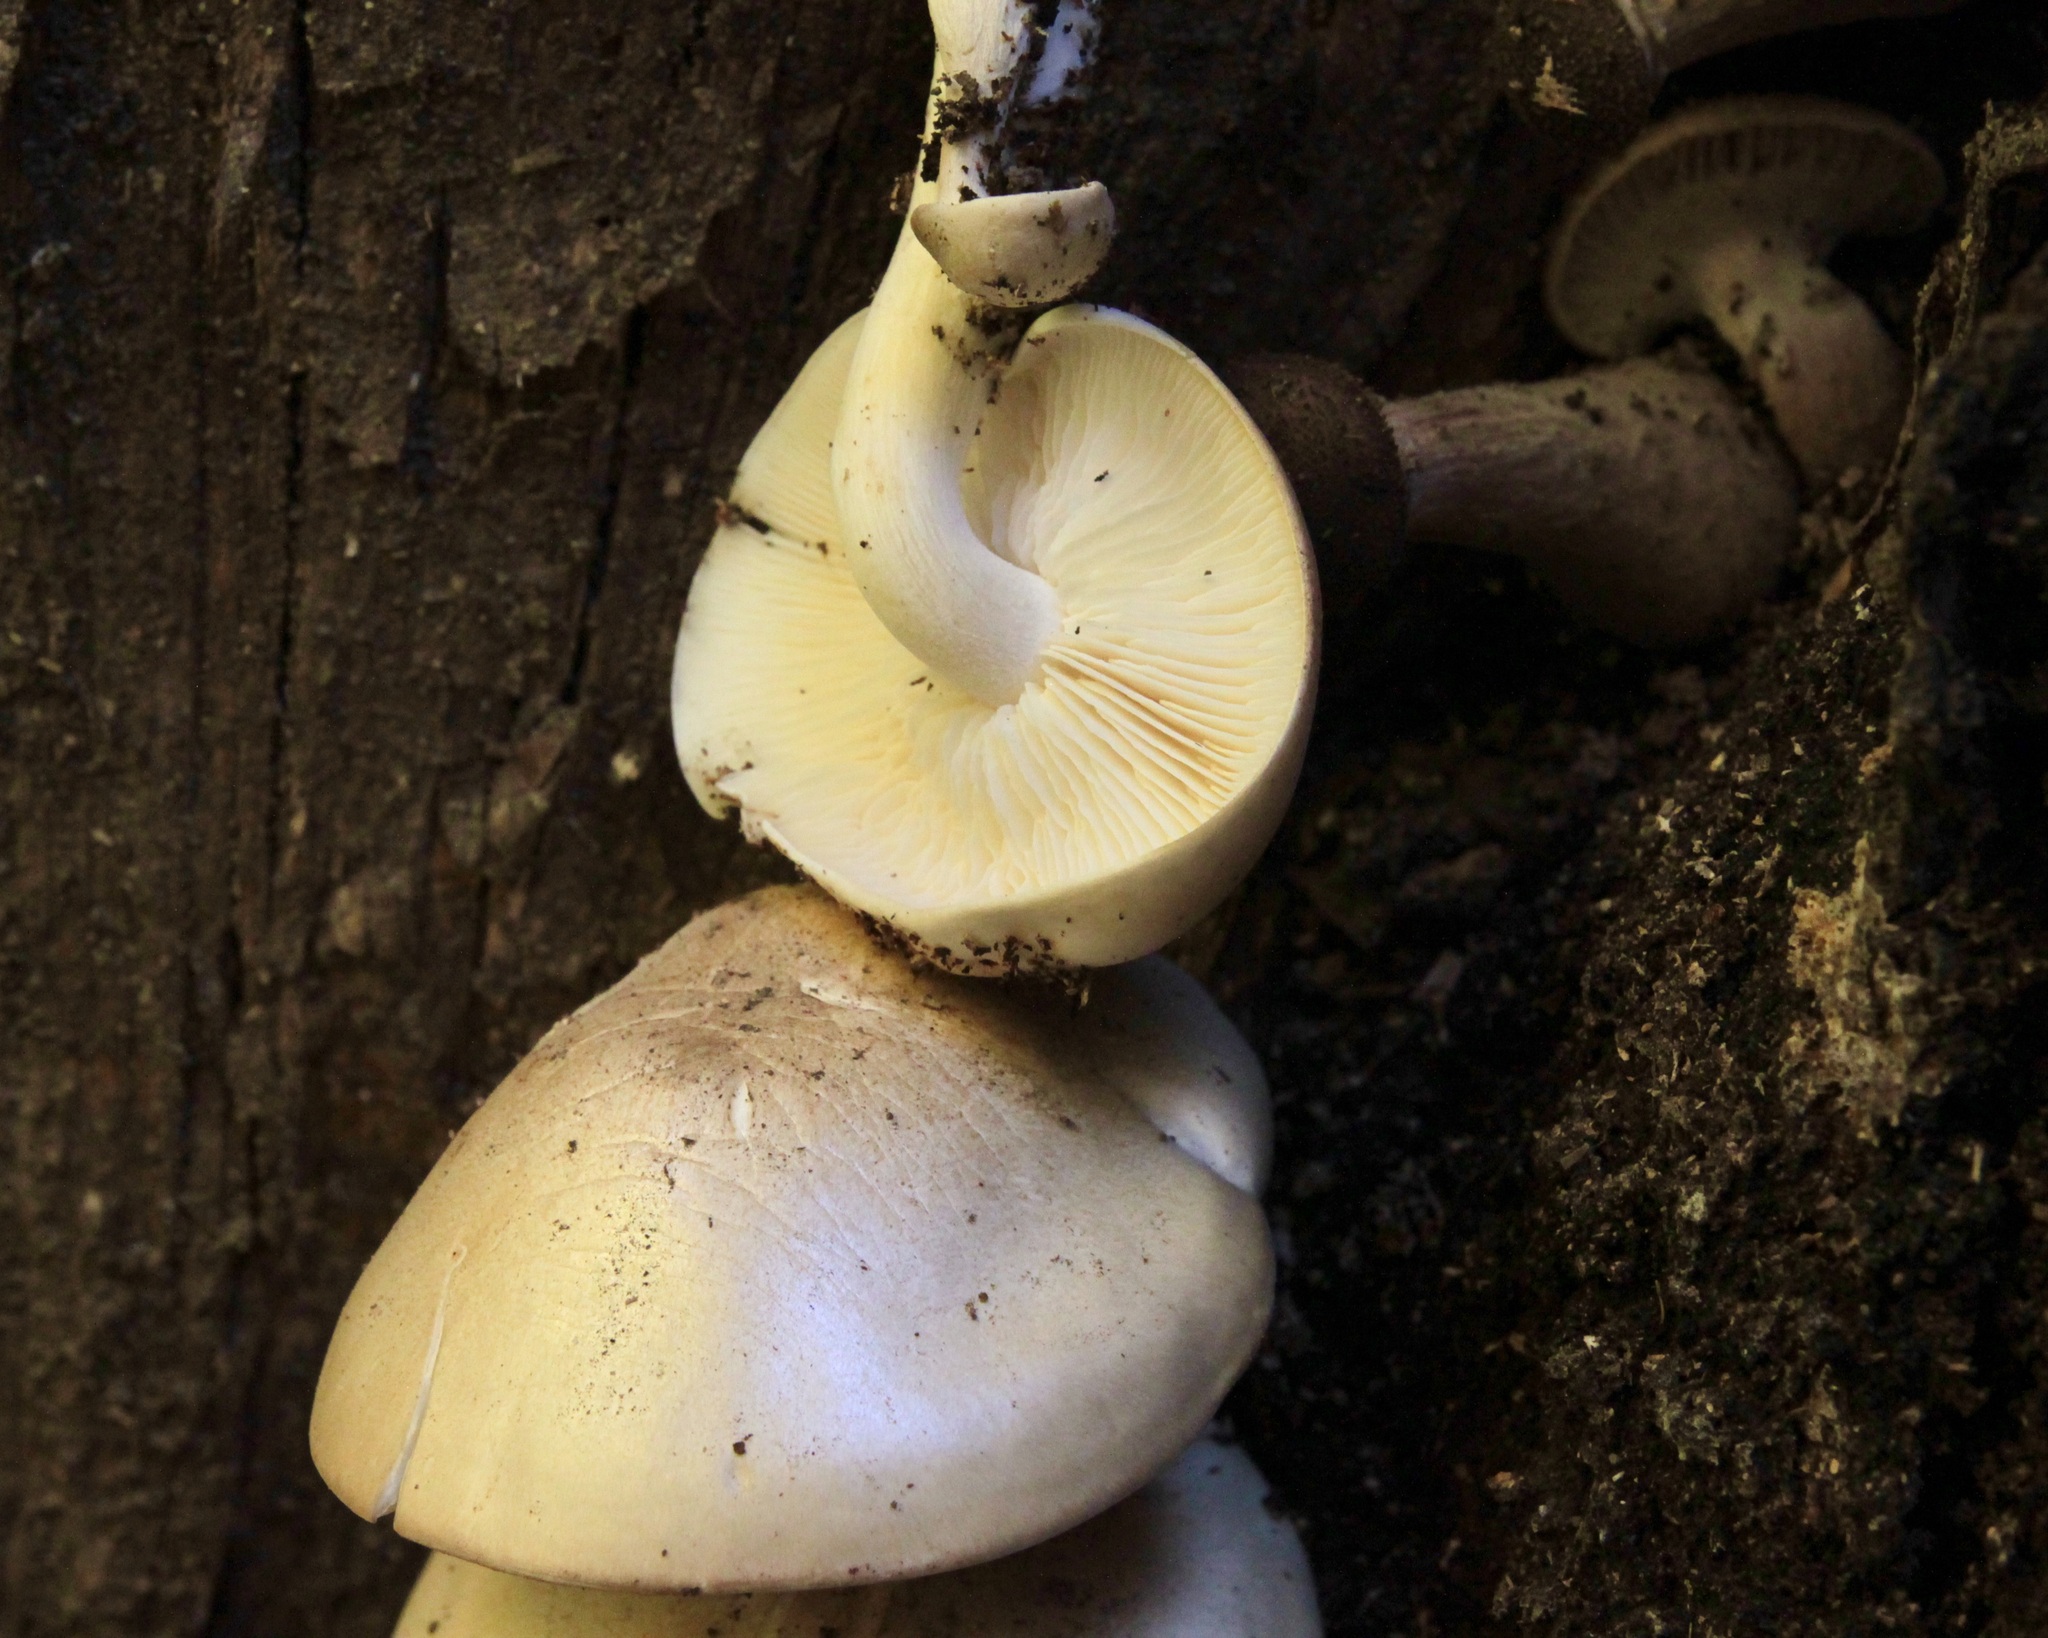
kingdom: Fungi
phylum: Basidiomycota
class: Agaricomycetes
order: Agaricales
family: Lyophyllaceae
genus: Hypsizygus
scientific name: Hypsizygus ulmarius
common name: Elm leech
